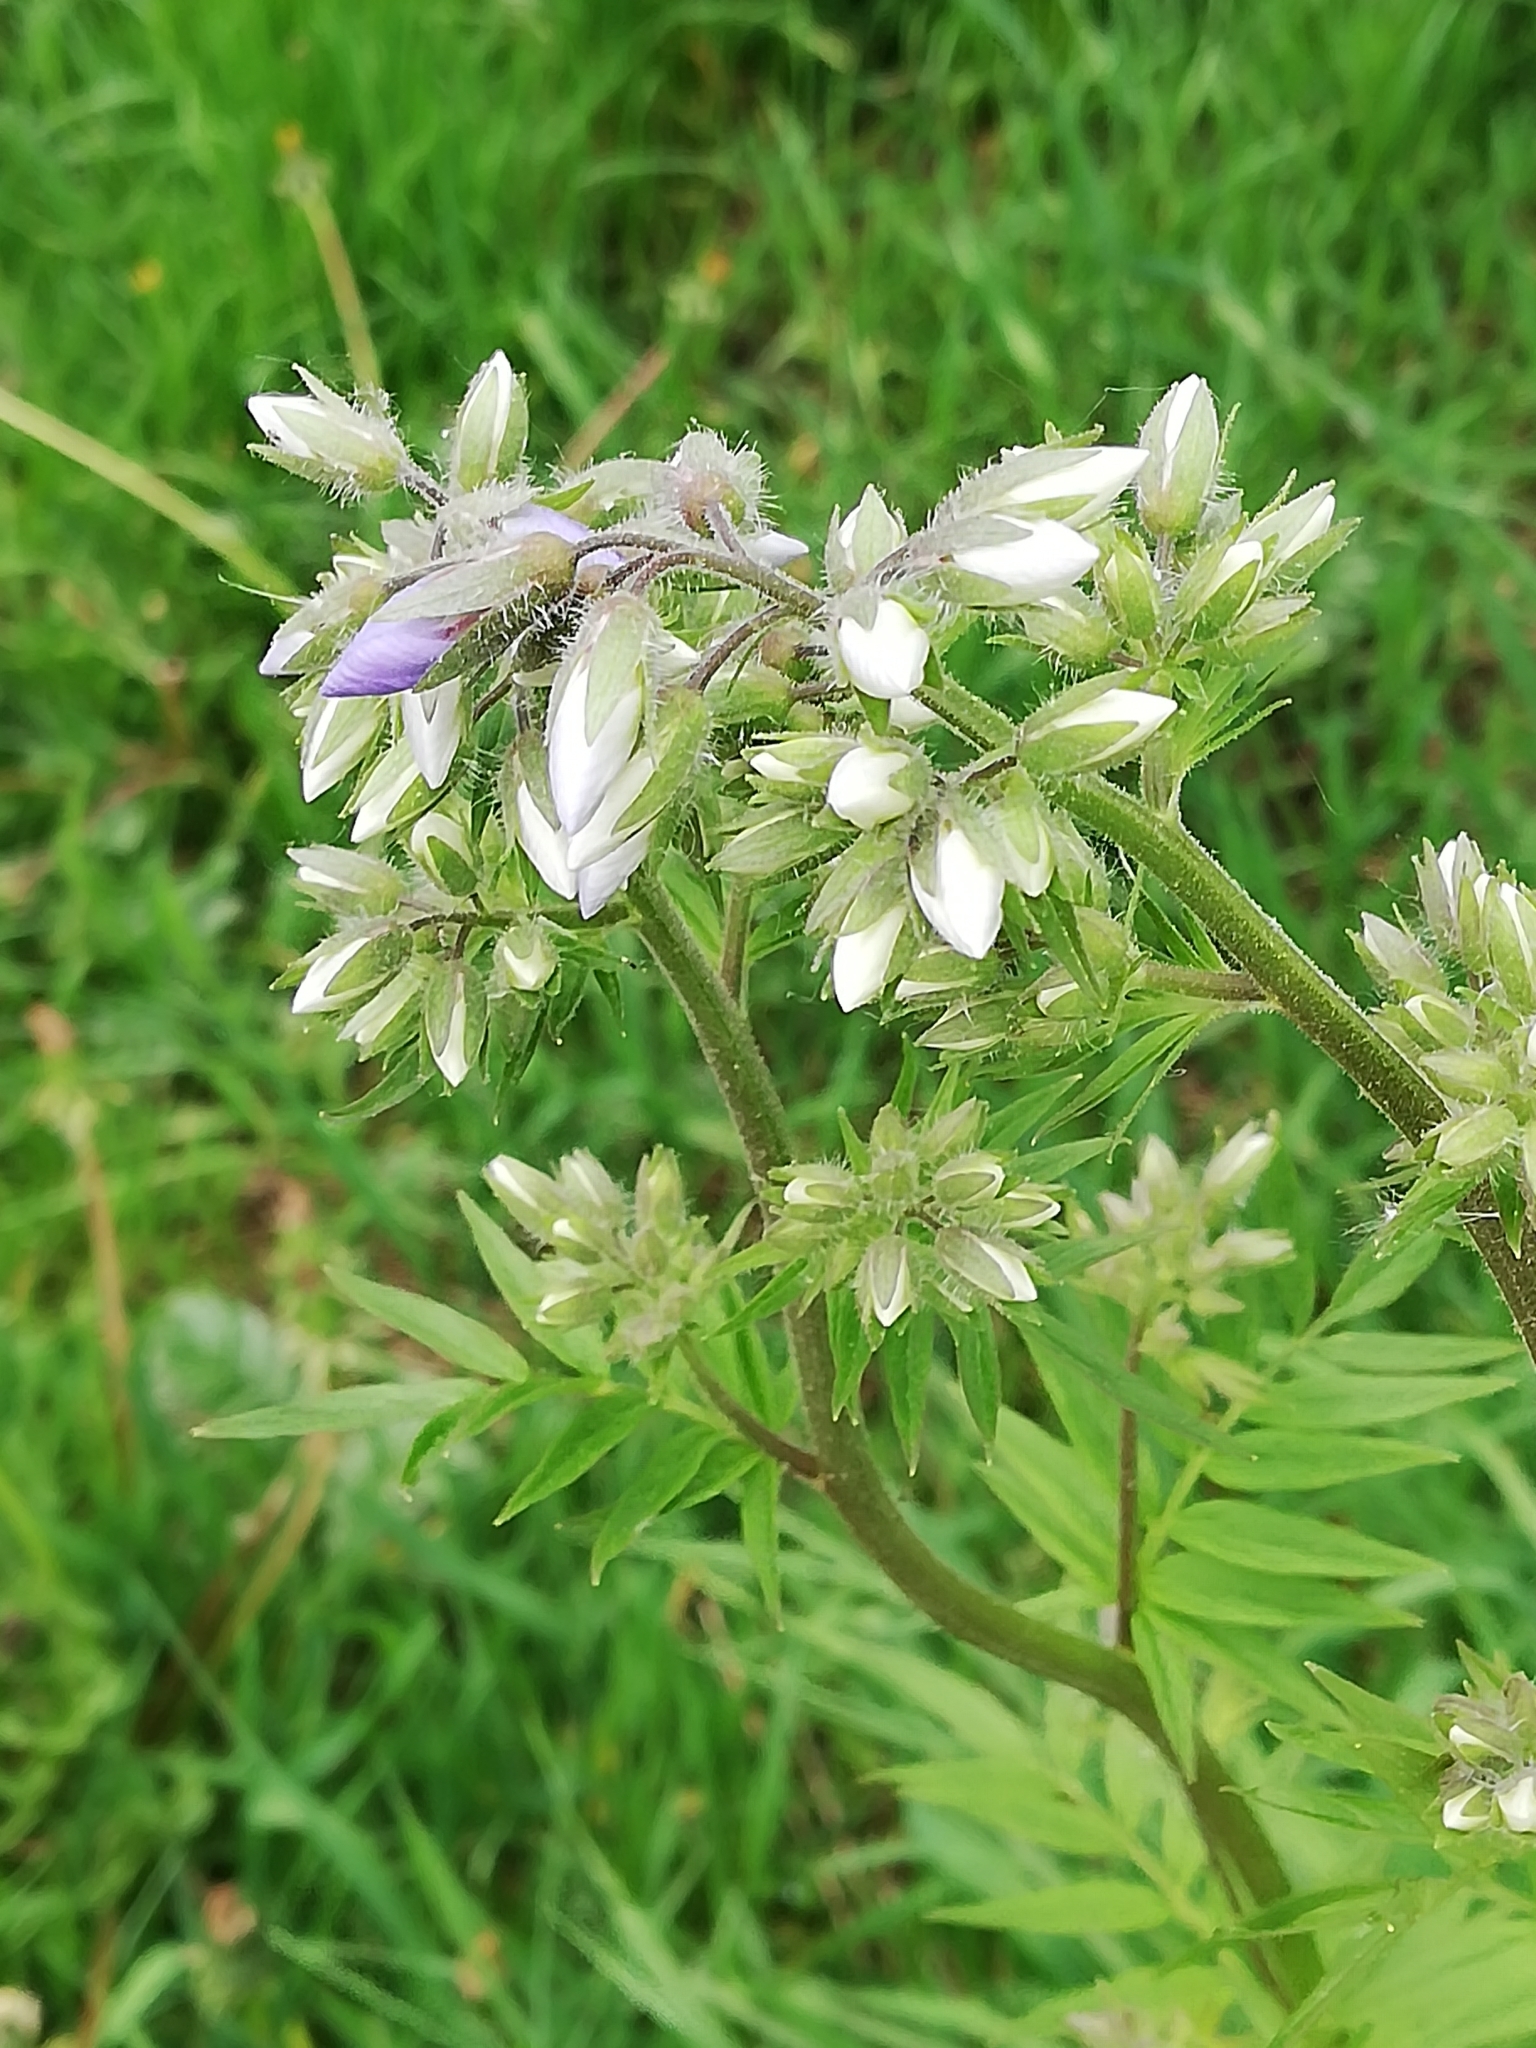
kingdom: Plantae
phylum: Tracheophyta
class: Magnoliopsida
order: Ericales
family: Polemoniaceae
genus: Polemonium
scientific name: Polemonium caeruleum
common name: Jacob's-ladder
